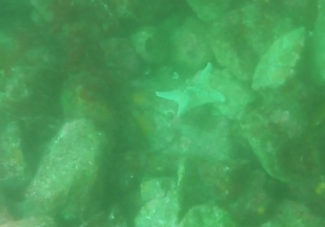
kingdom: Animalia
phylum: Echinodermata
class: Asteroidea
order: Valvatida
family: Asterinidae
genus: Patiria
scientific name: Patiria miniata
